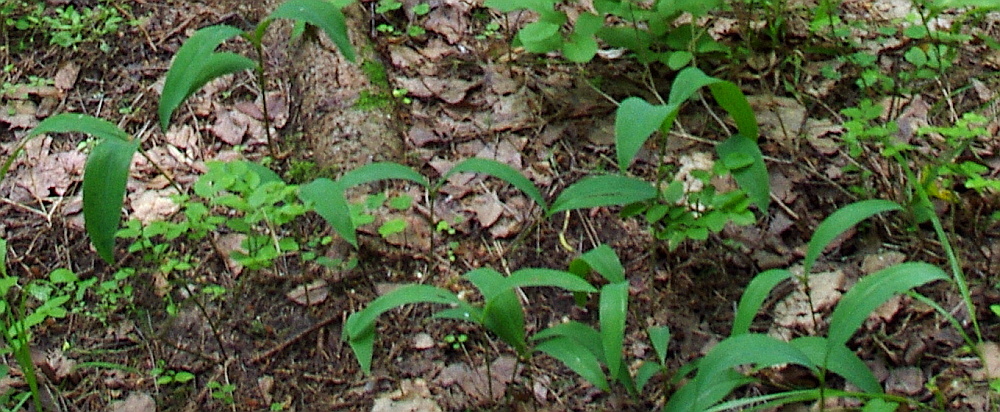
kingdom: Plantae
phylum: Tracheophyta
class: Liliopsida
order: Asparagales
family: Asparagaceae
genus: Convallaria
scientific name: Convallaria majalis
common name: Lily-of-the-valley
